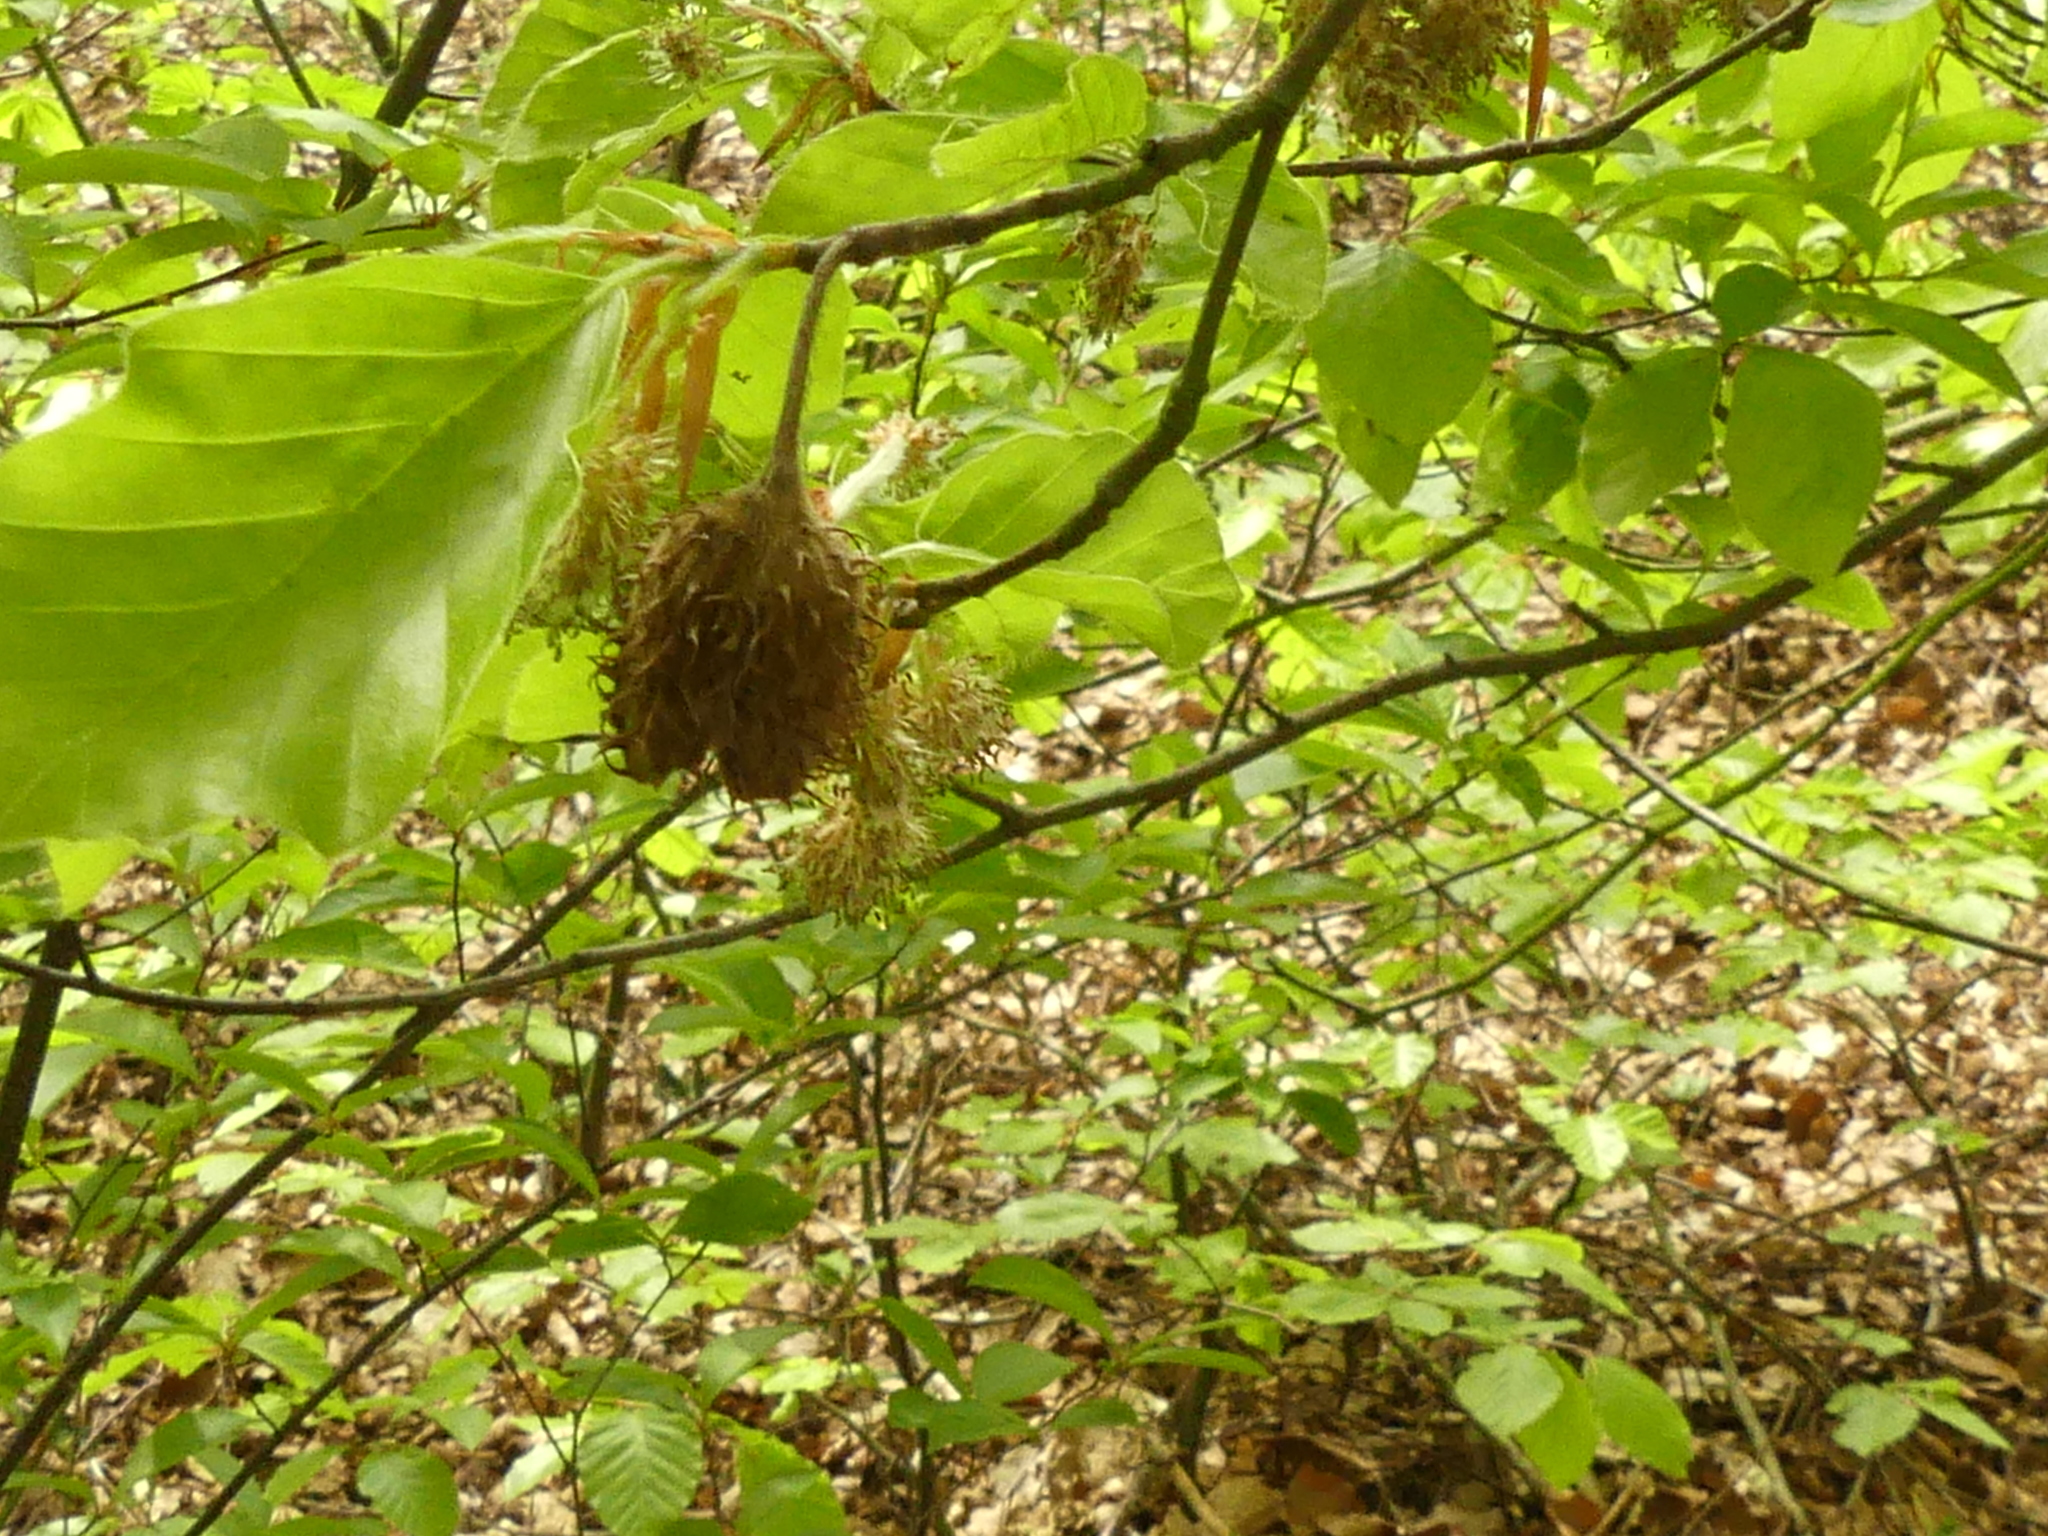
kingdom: Plantae
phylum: Tracheophyta
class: Magnoliopsida
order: Fagales
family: Fagaceae
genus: Fagus
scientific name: Fagus sylvatica
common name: Beech
